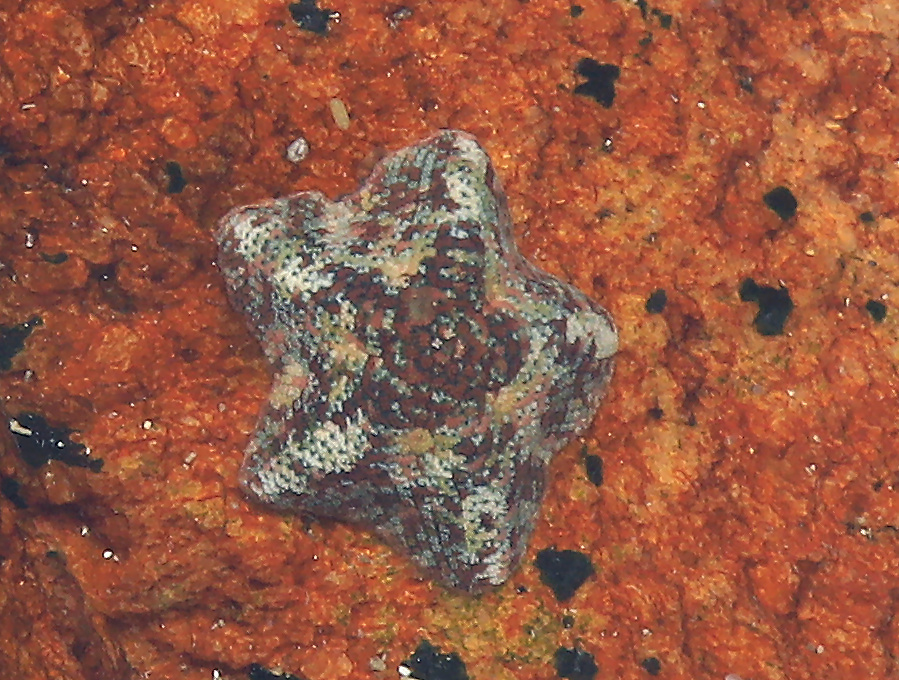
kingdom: Animalia
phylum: Echinodermata
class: Asteroidea
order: Valvatida
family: Asterinidae
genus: Parvulastra
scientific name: Parvulastra exigua
